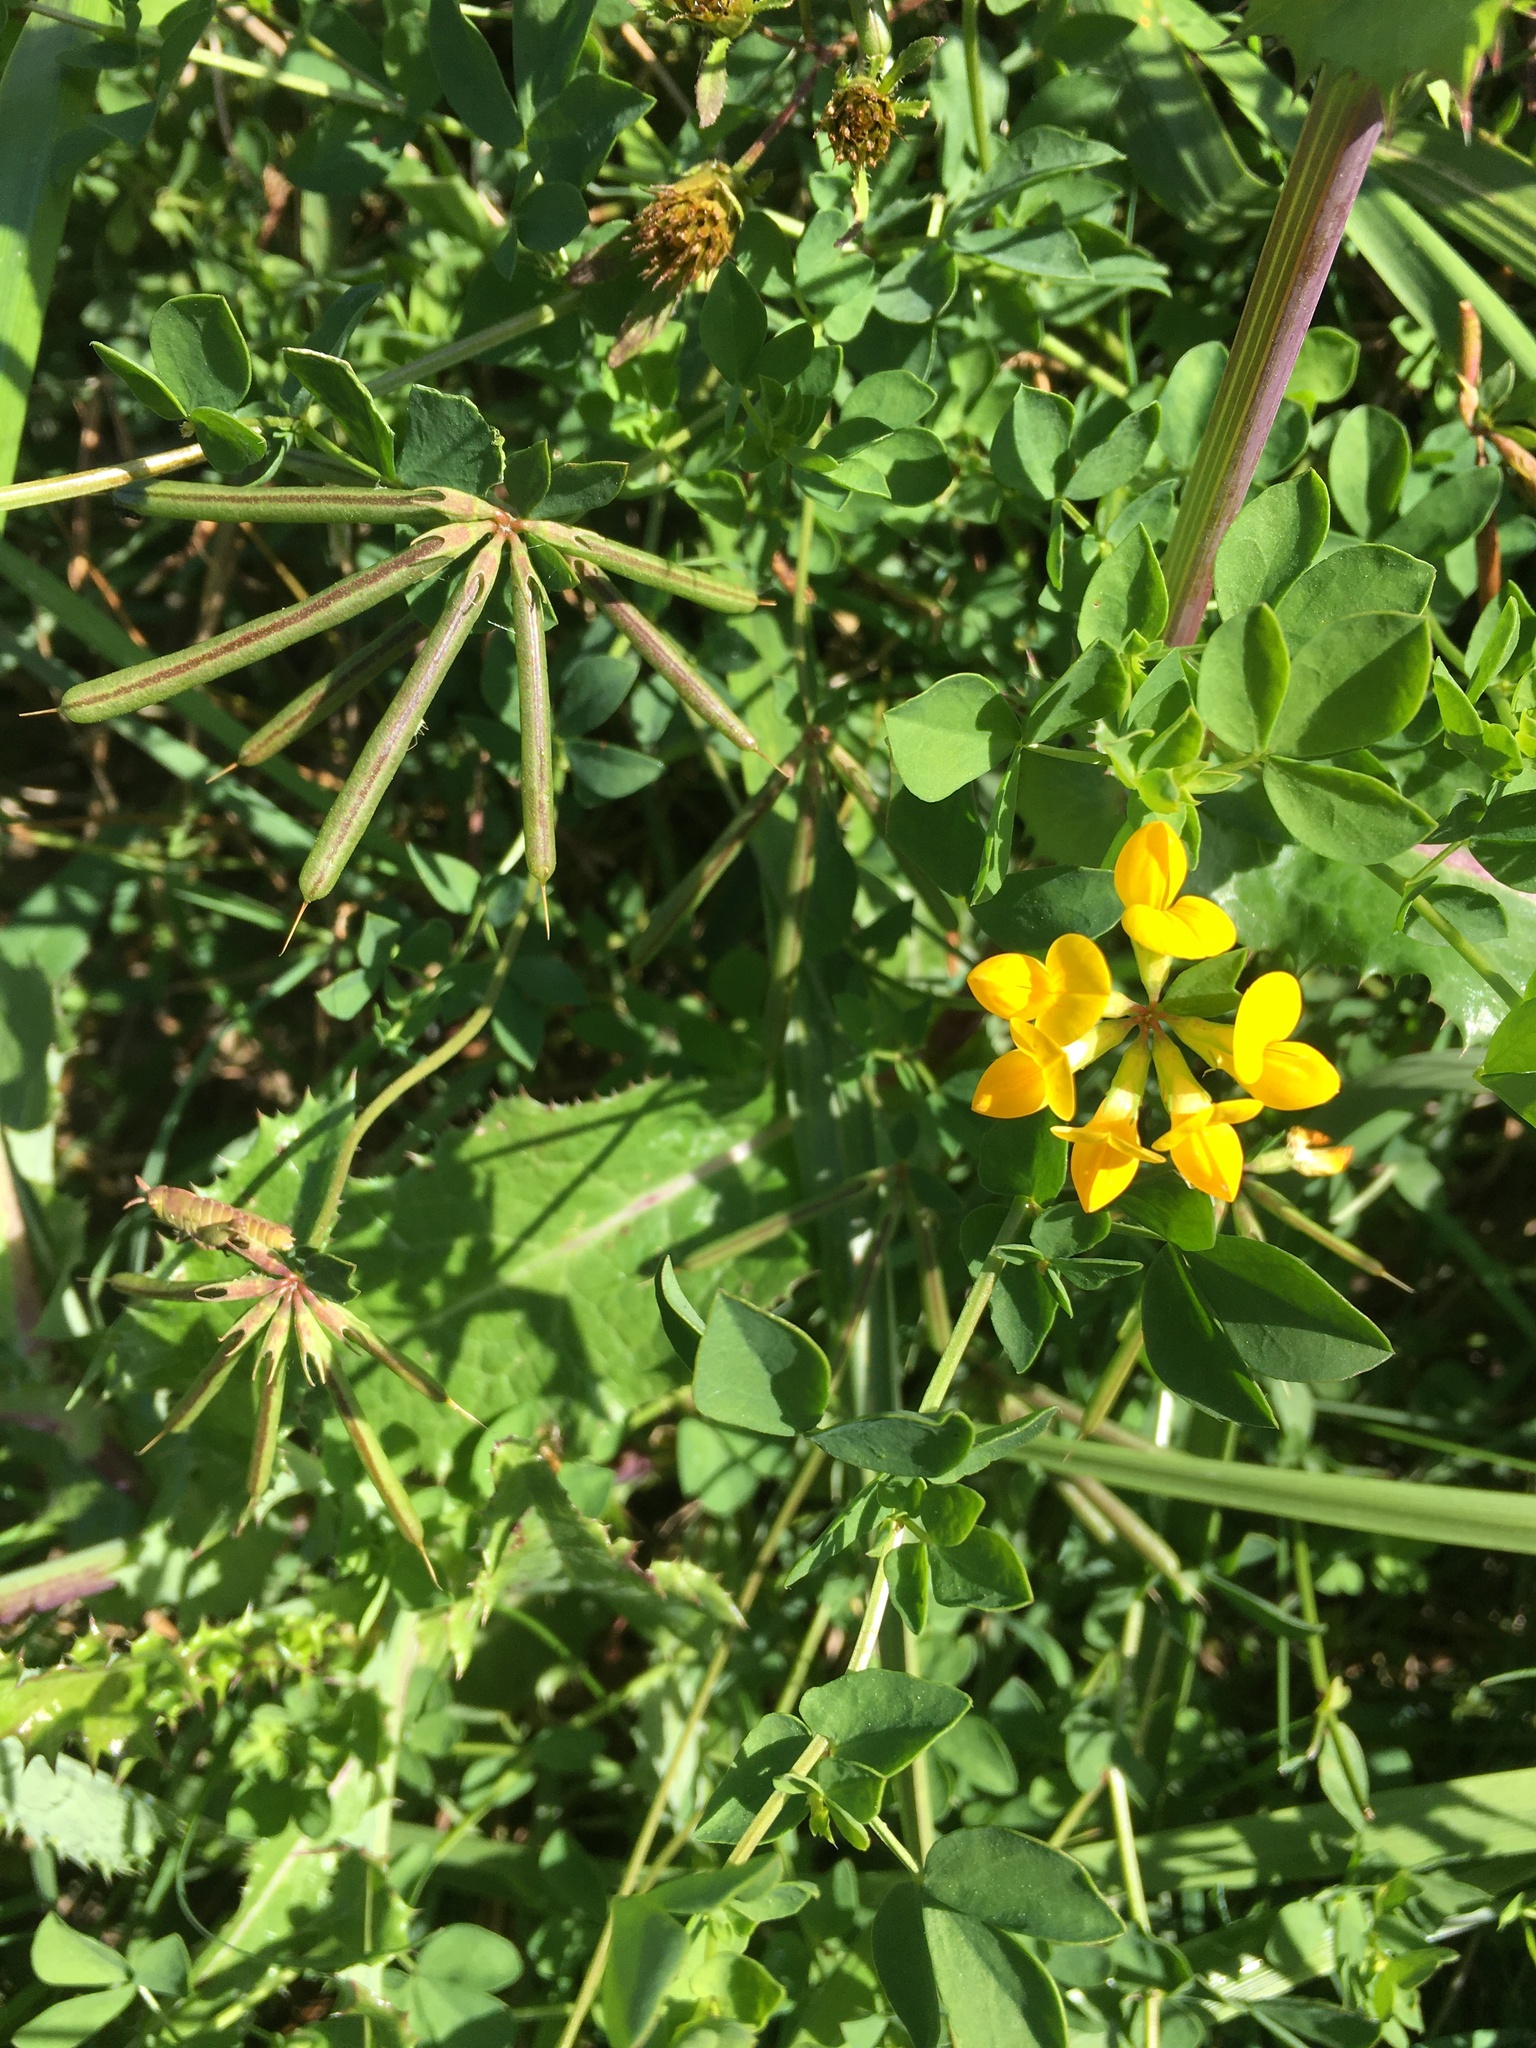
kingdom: Plantae
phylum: Tracheophyta
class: Magnoliopsida
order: Fabales
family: Fabaceae
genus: Lotus
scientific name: Lotus corniculatus
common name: Common bird's-foot-trefoil
